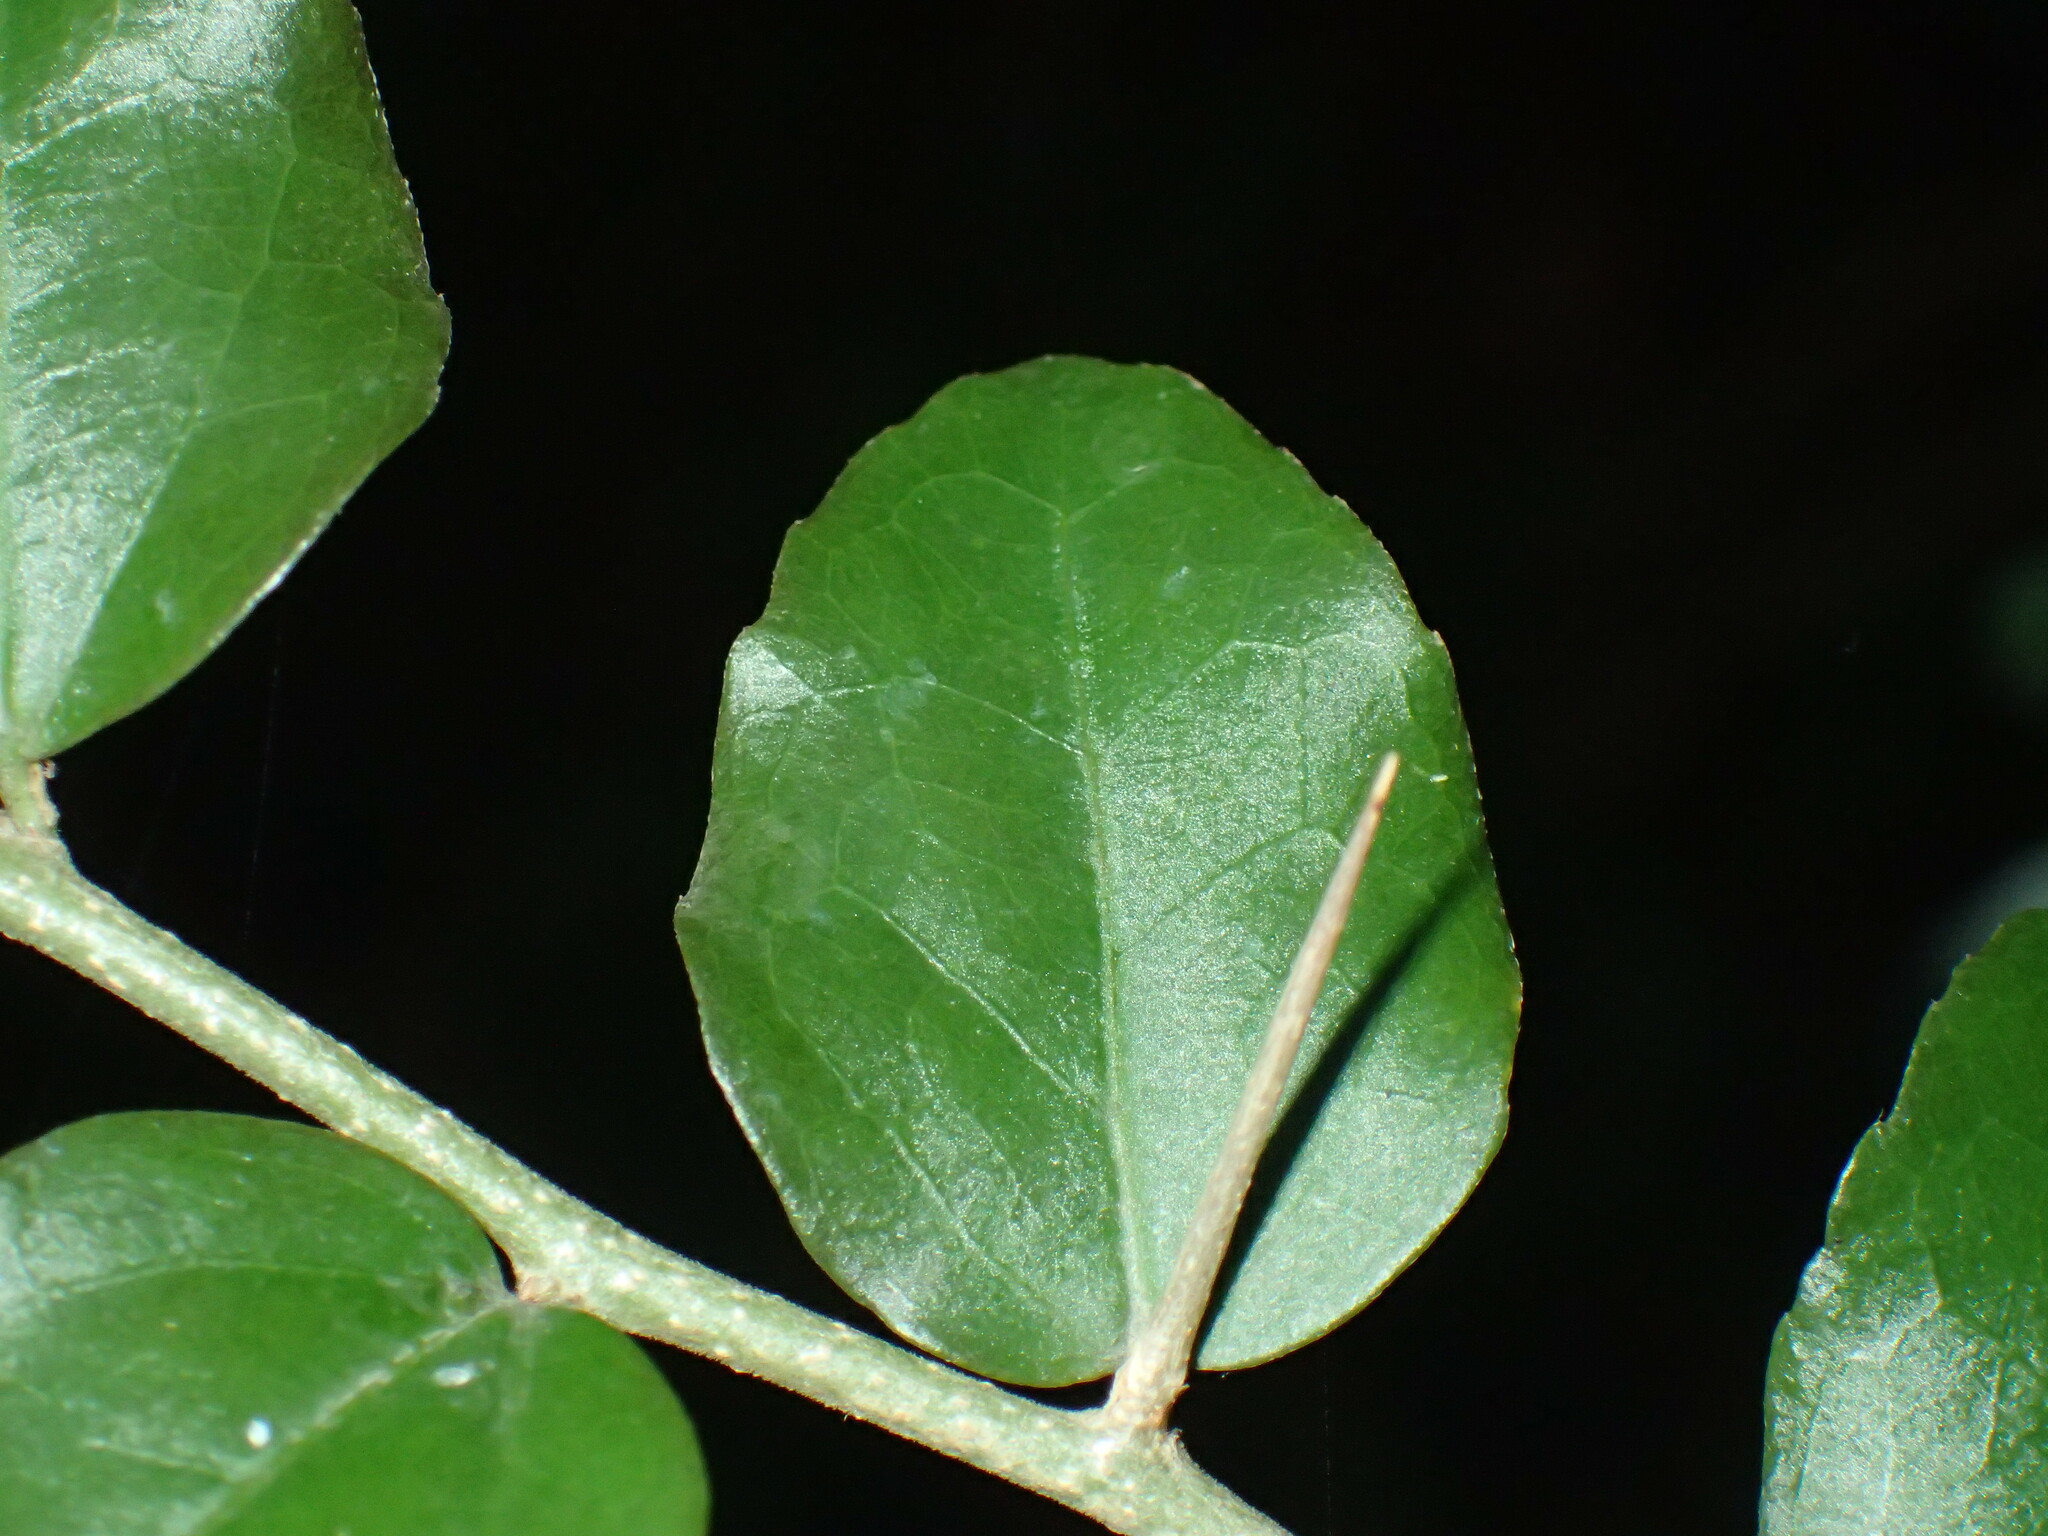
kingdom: Plantae
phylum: Tracheophyta
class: Magnoliopsida
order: Malpighiales
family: Salicaceae
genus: Dovyalis
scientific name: Dovyalis rhamnoides
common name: Sourberry
